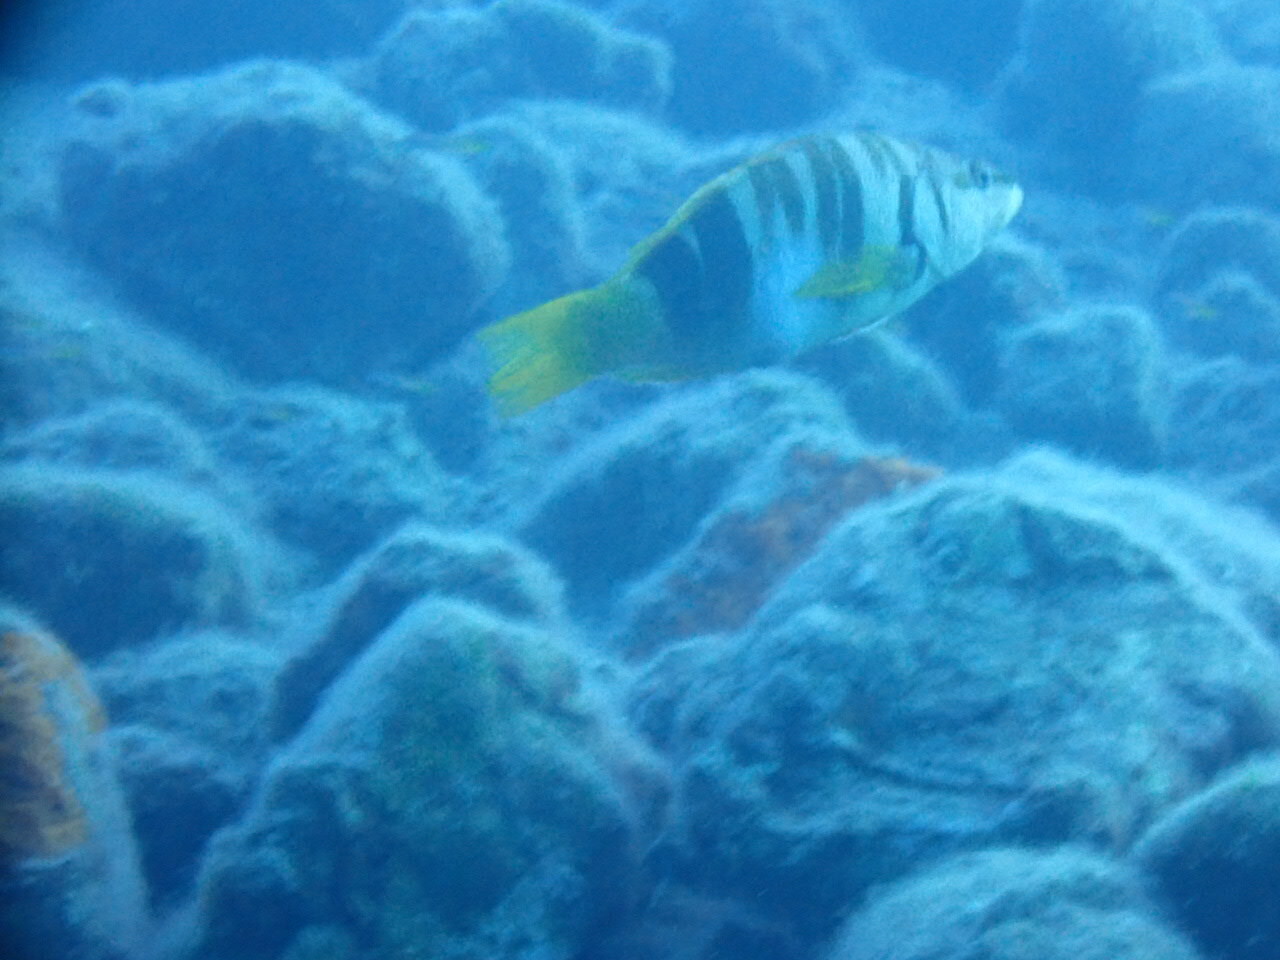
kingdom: Animalia
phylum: Chordata
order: Perciformes
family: Serranidae
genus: Serranus
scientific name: Serranus scriba
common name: Painted comber
